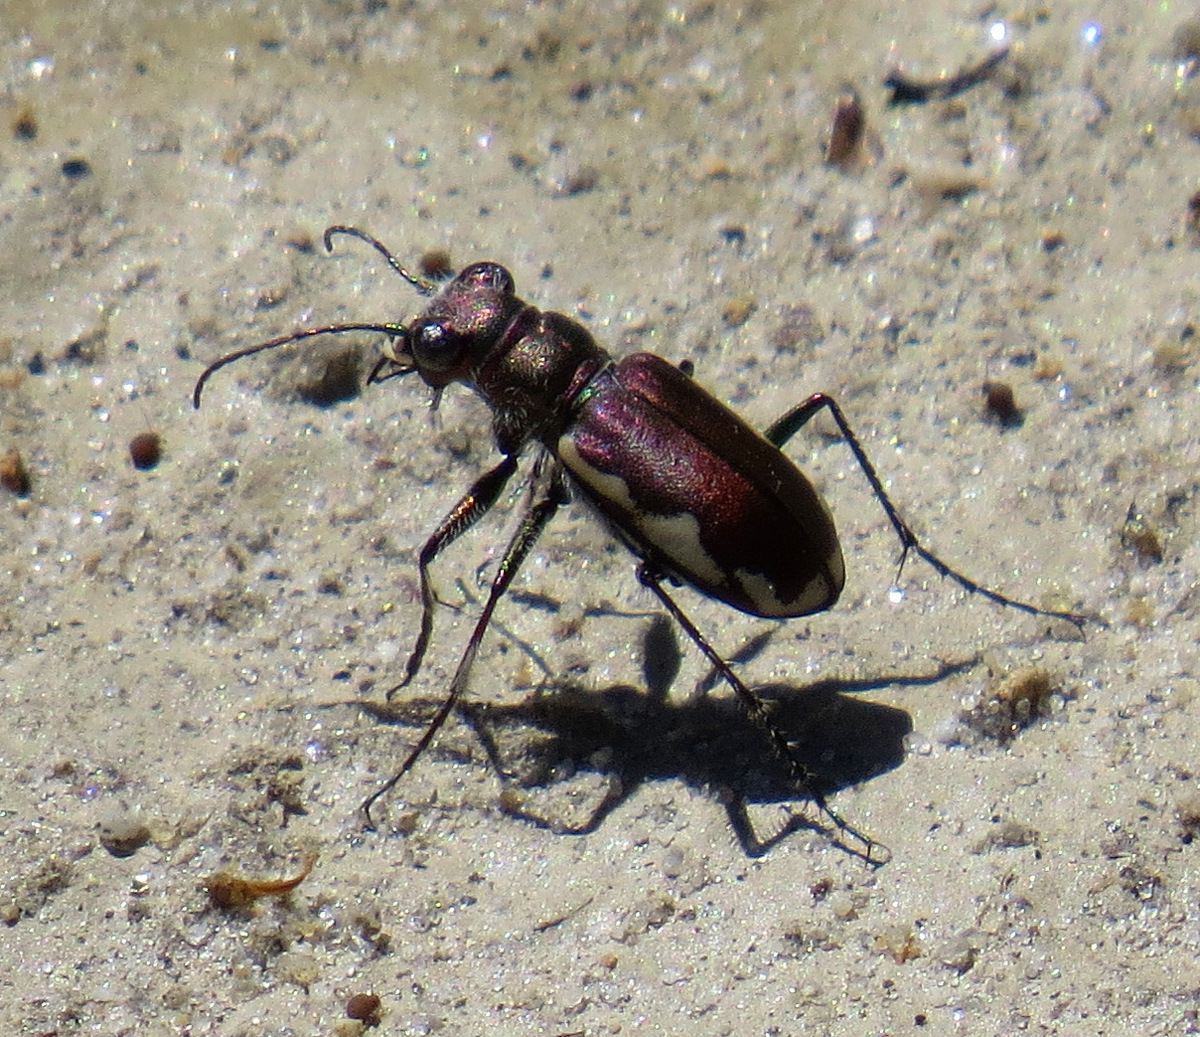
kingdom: Animalia
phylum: Arthropoda
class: Insecta
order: Coleoptera
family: Carabidae
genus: Cicindela
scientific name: Cicindela scutellaris
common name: Festive tiger beetle
